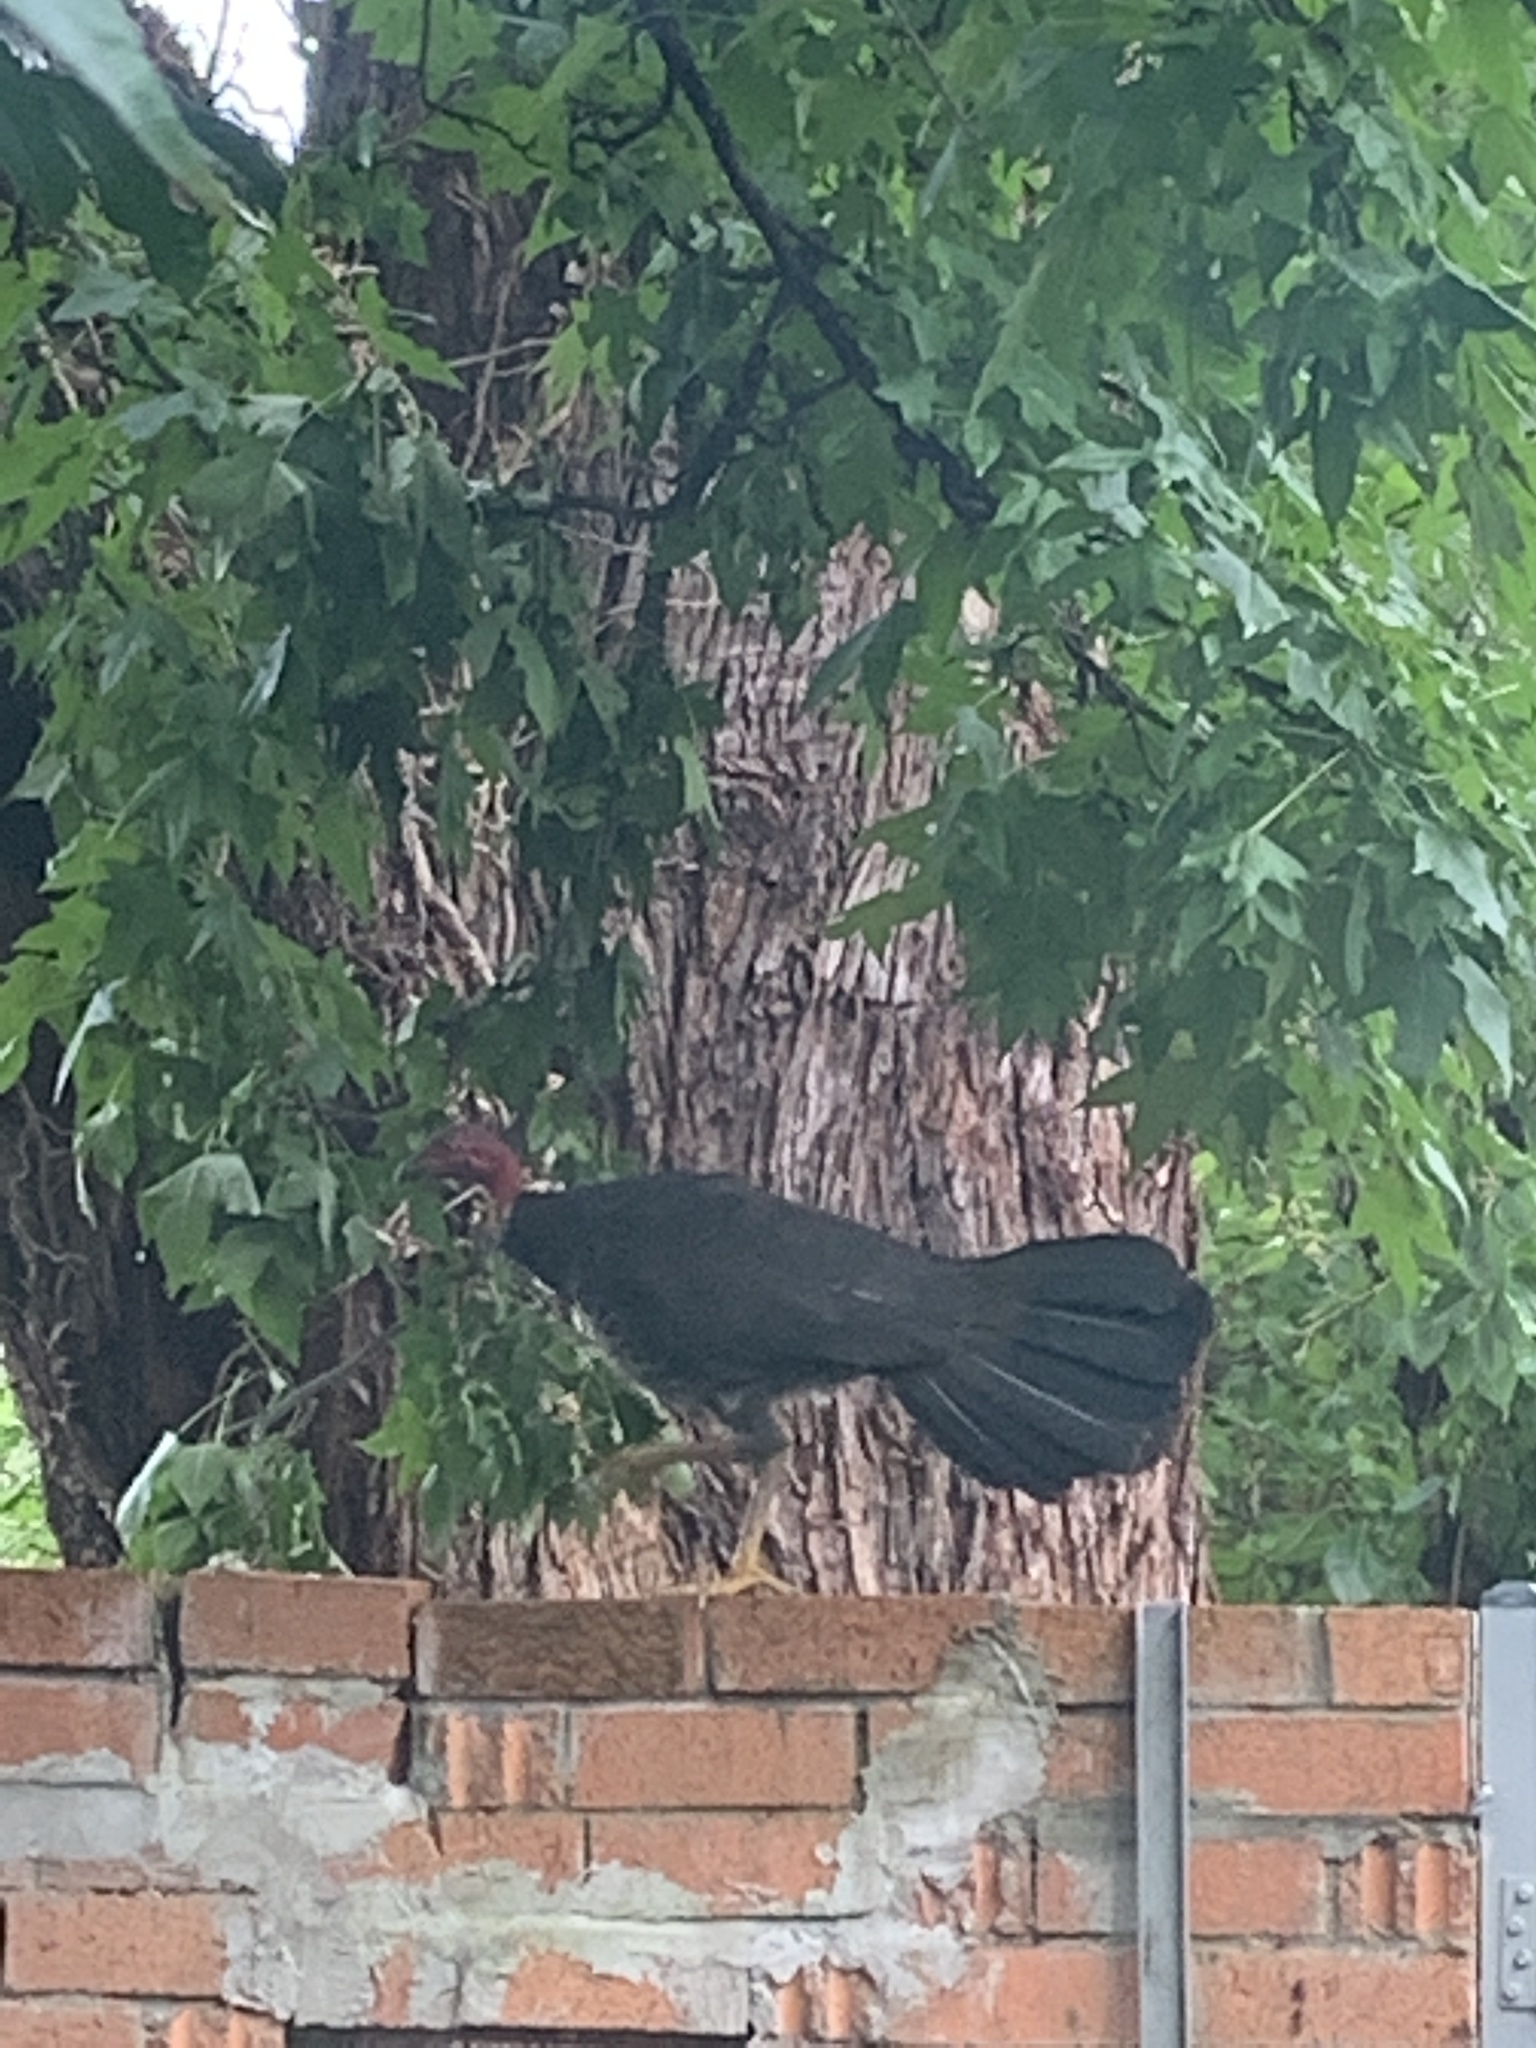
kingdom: Animalia
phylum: Chordata
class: Aves
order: Galliformes
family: Megapodiidae
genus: Alectura
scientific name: Alectura lathami
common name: Australian brushturkey
